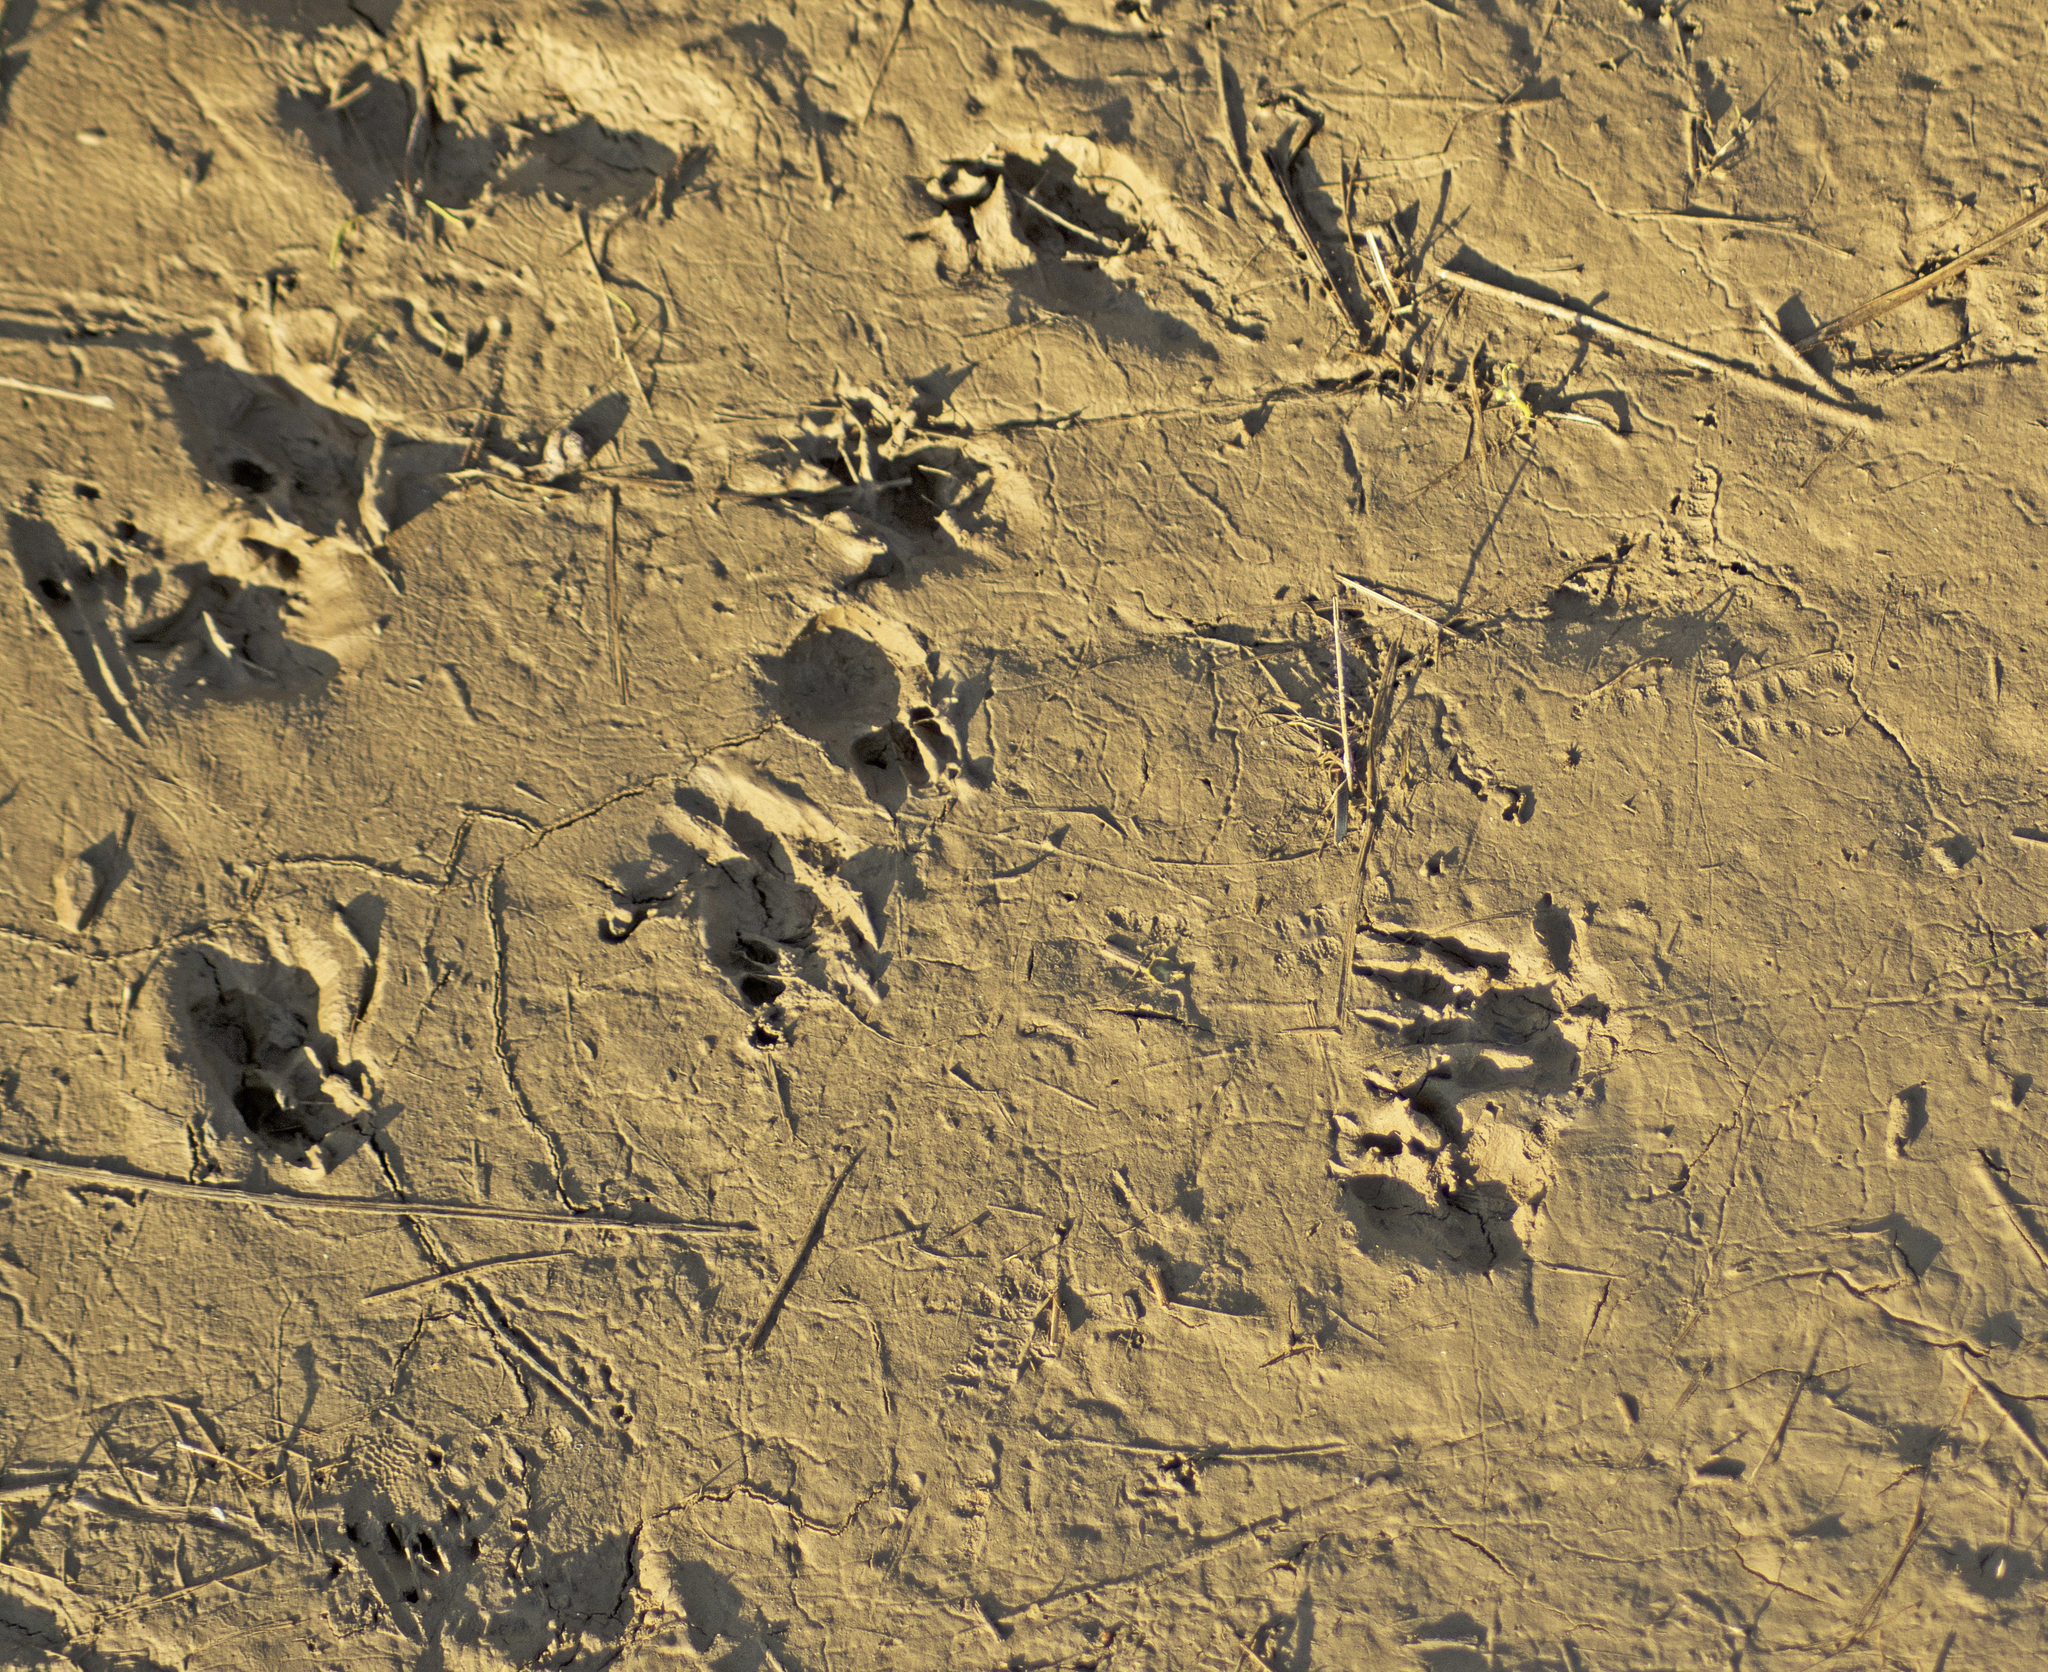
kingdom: Animalia
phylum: Chordata
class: Mammalia
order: Dasyuromorphia
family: Dasyuridae
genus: Dasyurus
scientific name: Dasyurus viverrinus
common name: Eastern quoll
